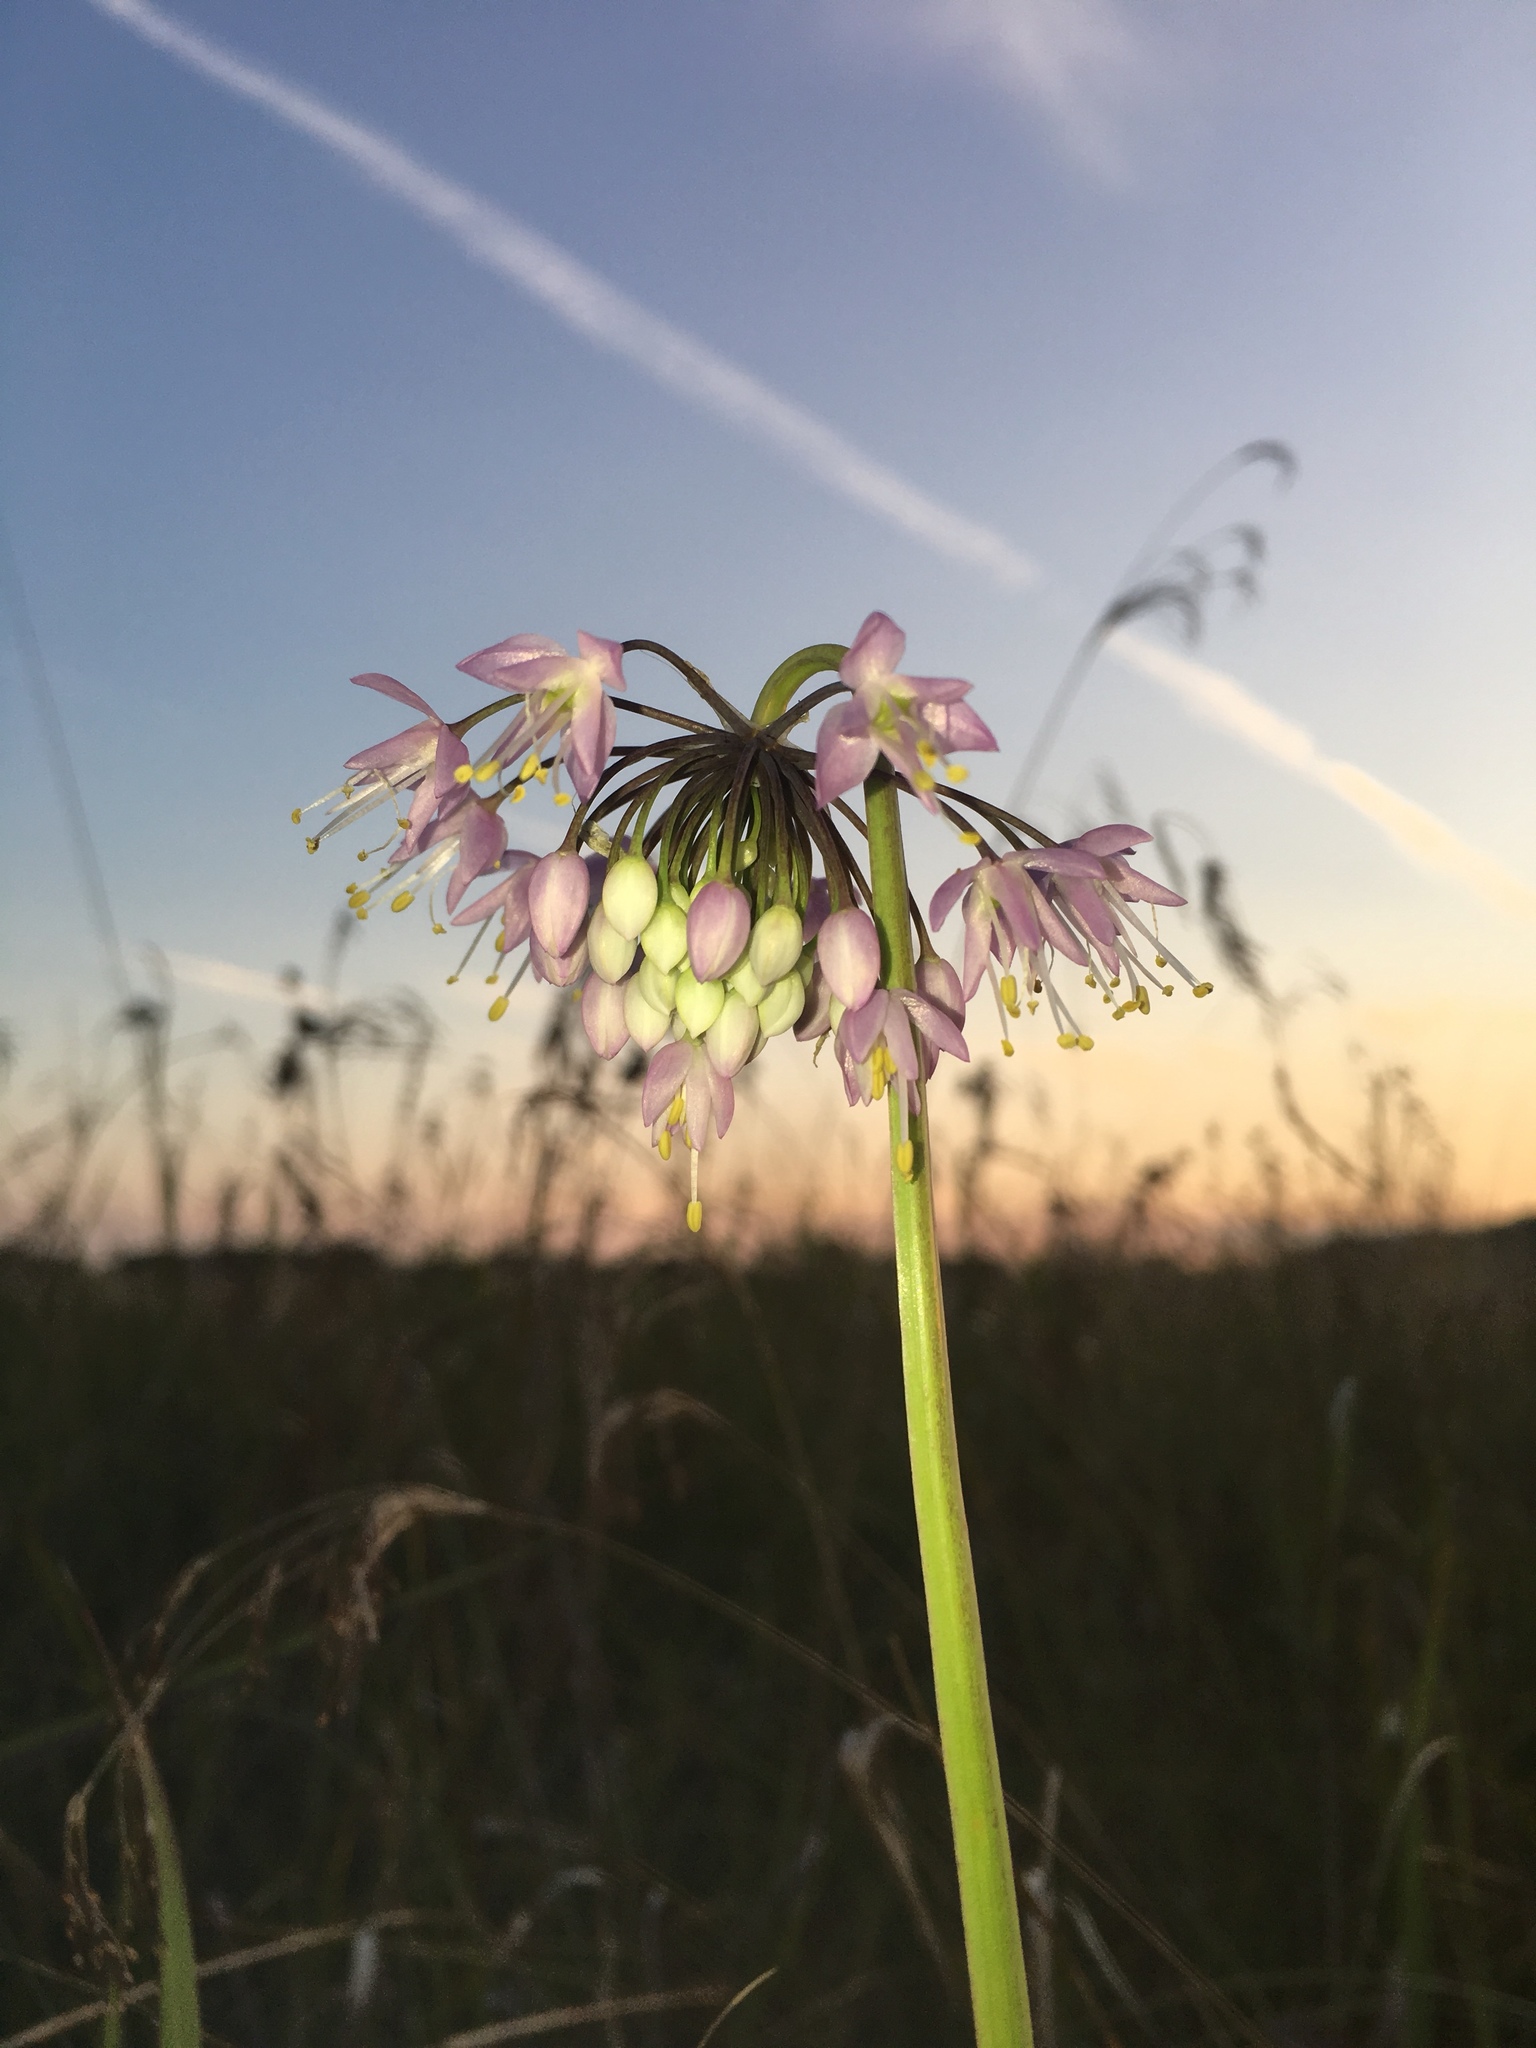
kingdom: Plantae
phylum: Tracheophyta
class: Liliopsida
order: Asparagales
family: Amaryllidaceae
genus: Allium
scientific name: Allium cernuum
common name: Nodding onion
